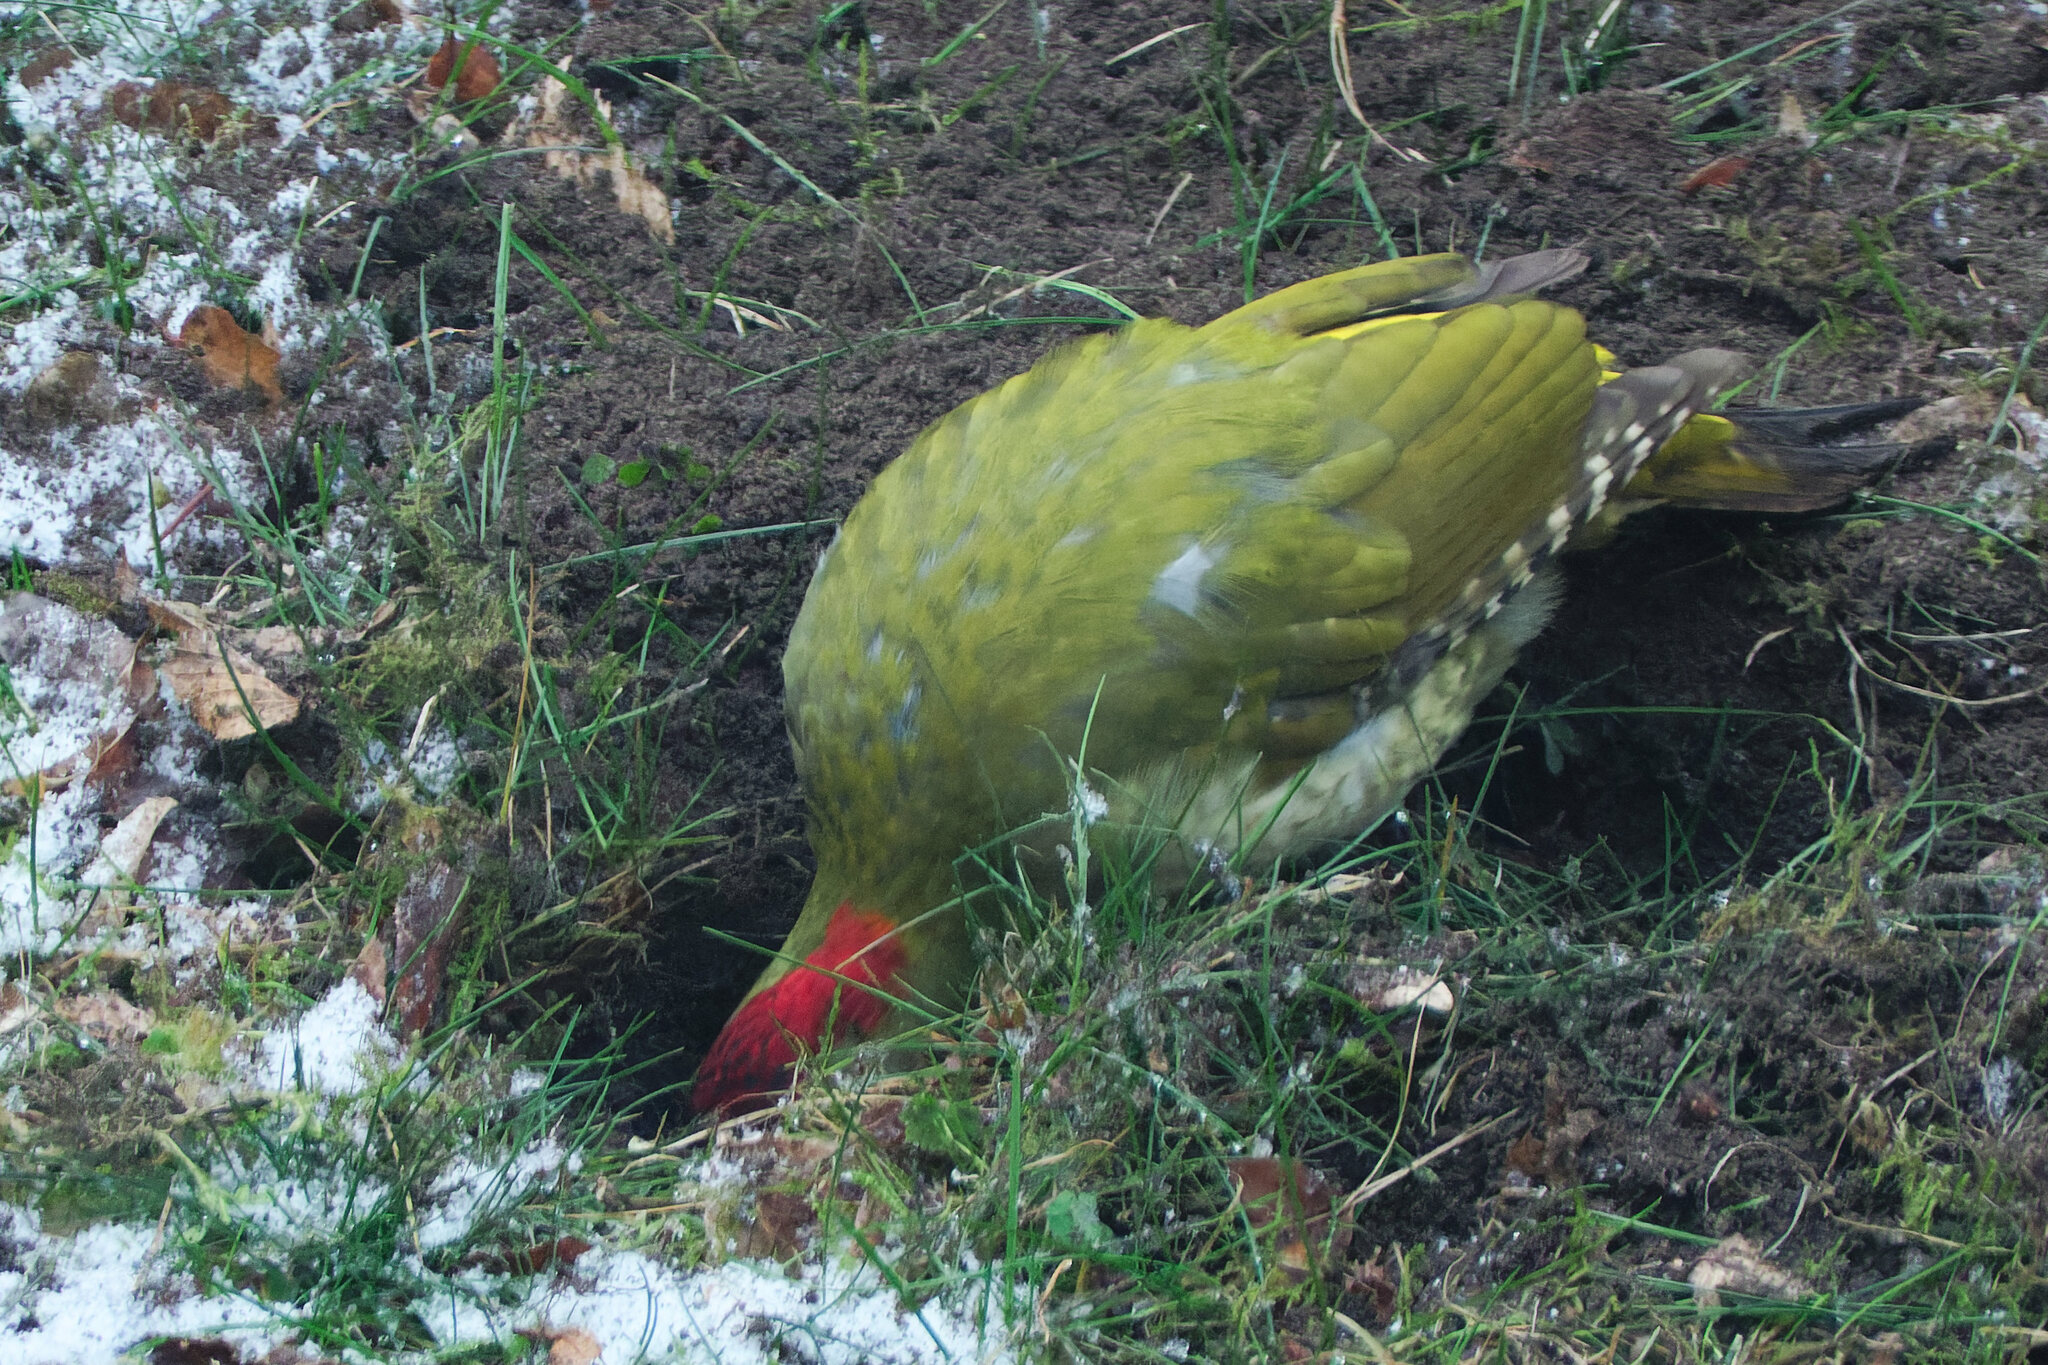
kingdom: Animalia
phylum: Chordata
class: Aves
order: Piciformes
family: Picidae
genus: Picus
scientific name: Picus viridis
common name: European green woodpecker
